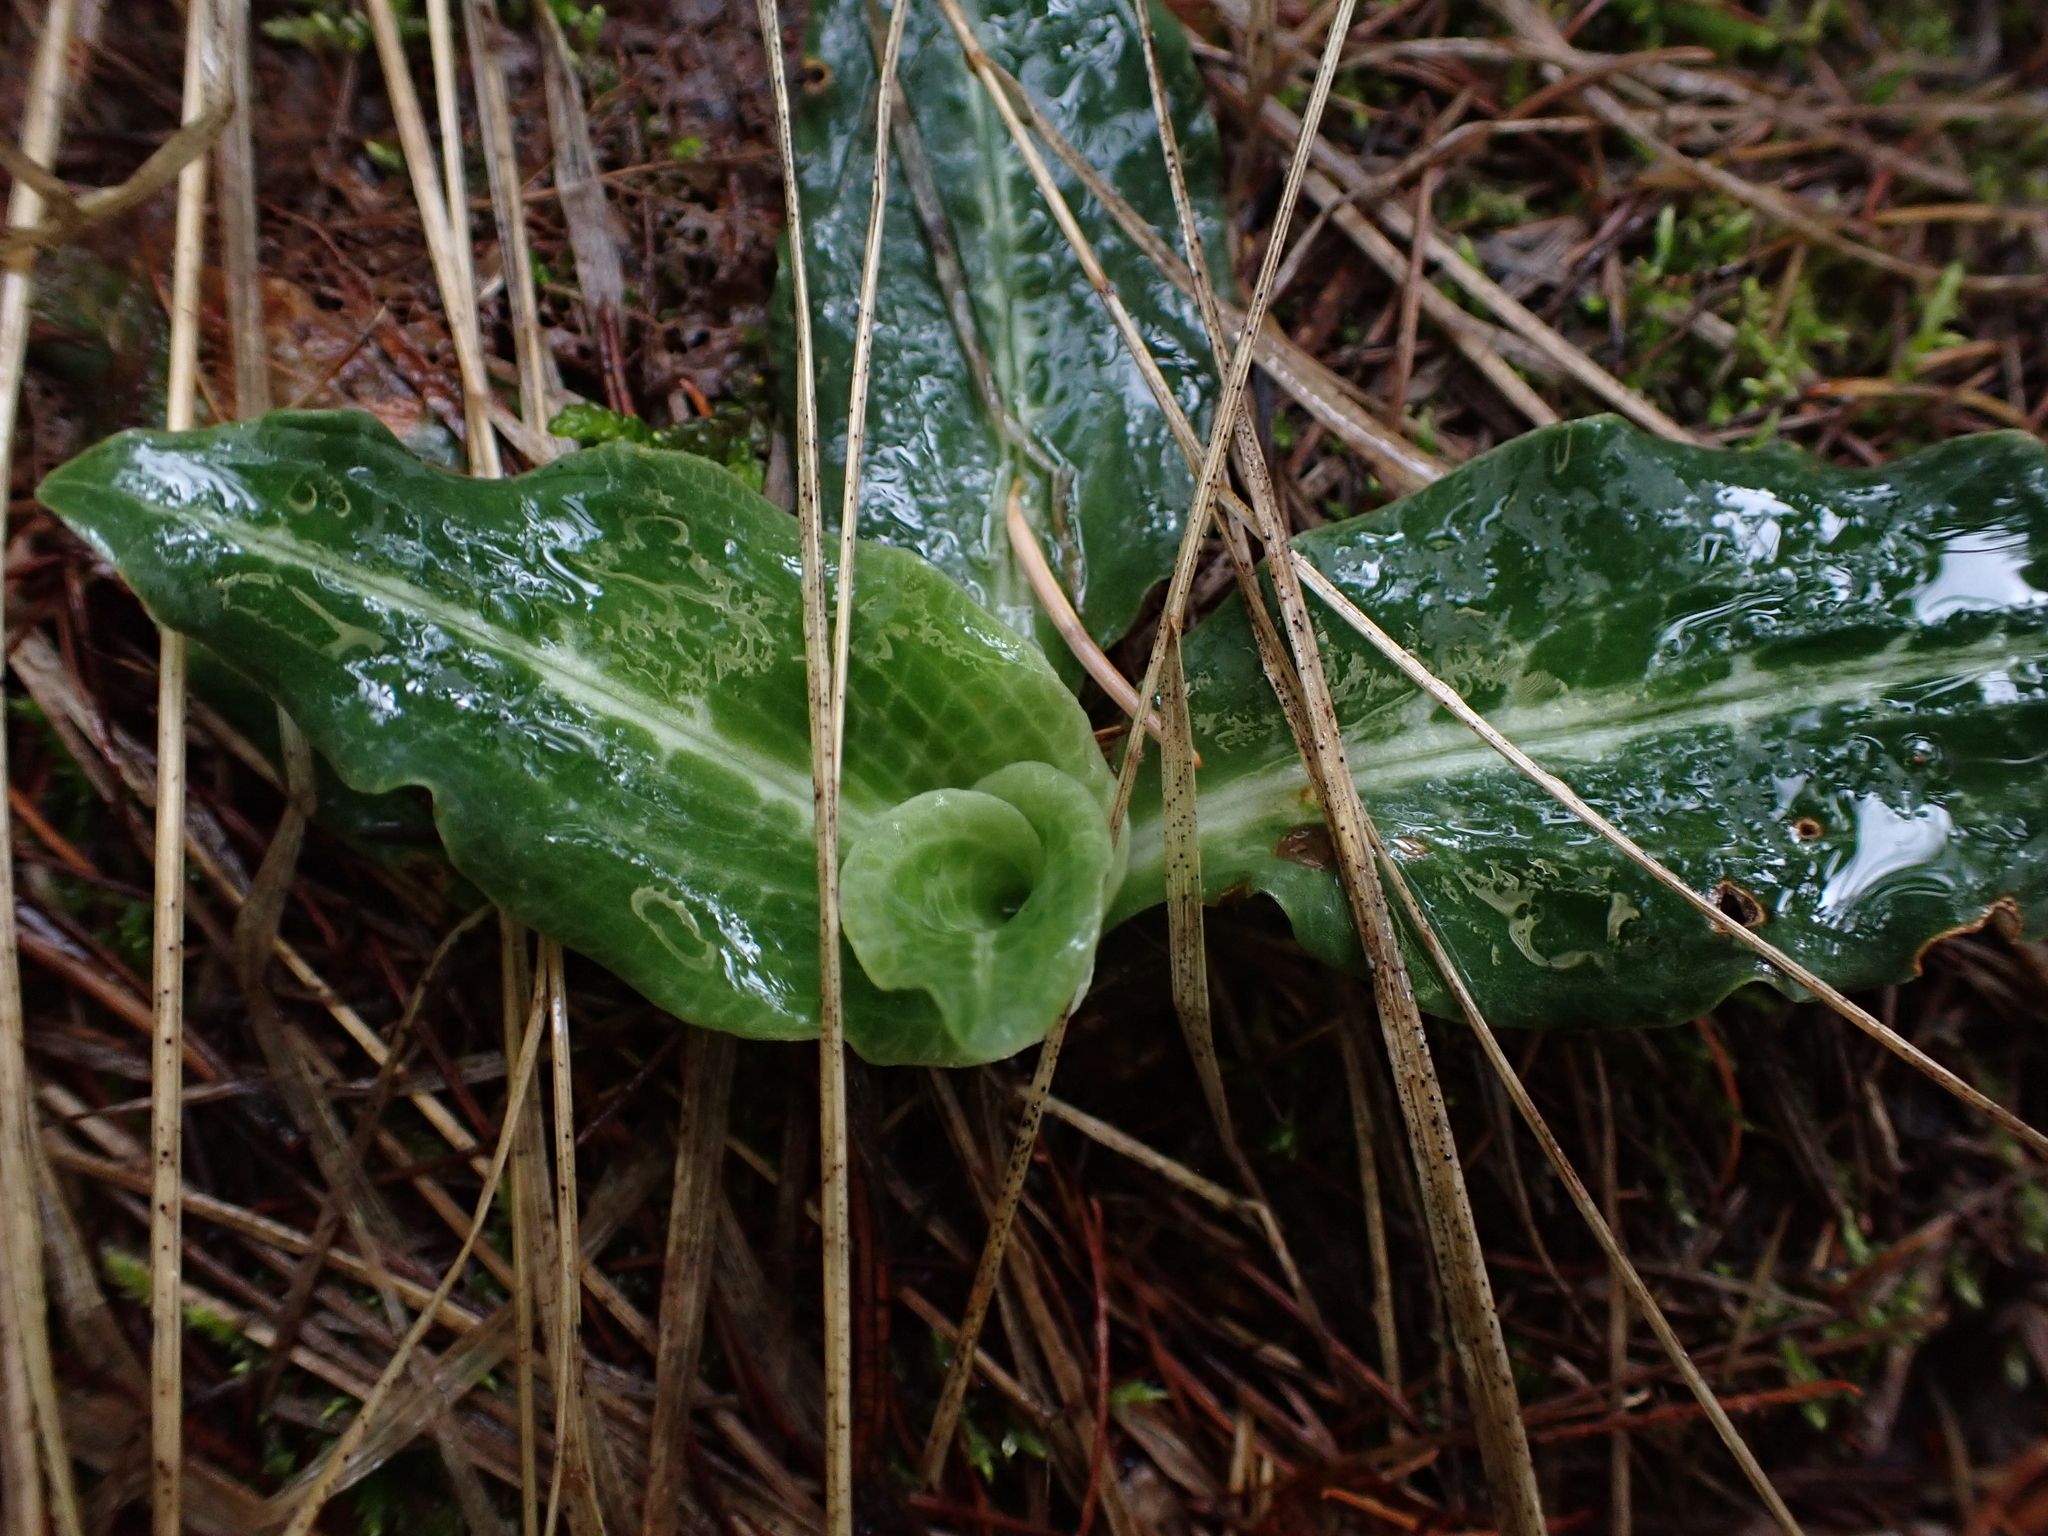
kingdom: Plantae
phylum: Tracheophyta
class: Liliopsida
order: Asparagales
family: Orchidaceae
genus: Goodyera
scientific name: Goodyera oblongifolia
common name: Giant rattlesnake-plantain
